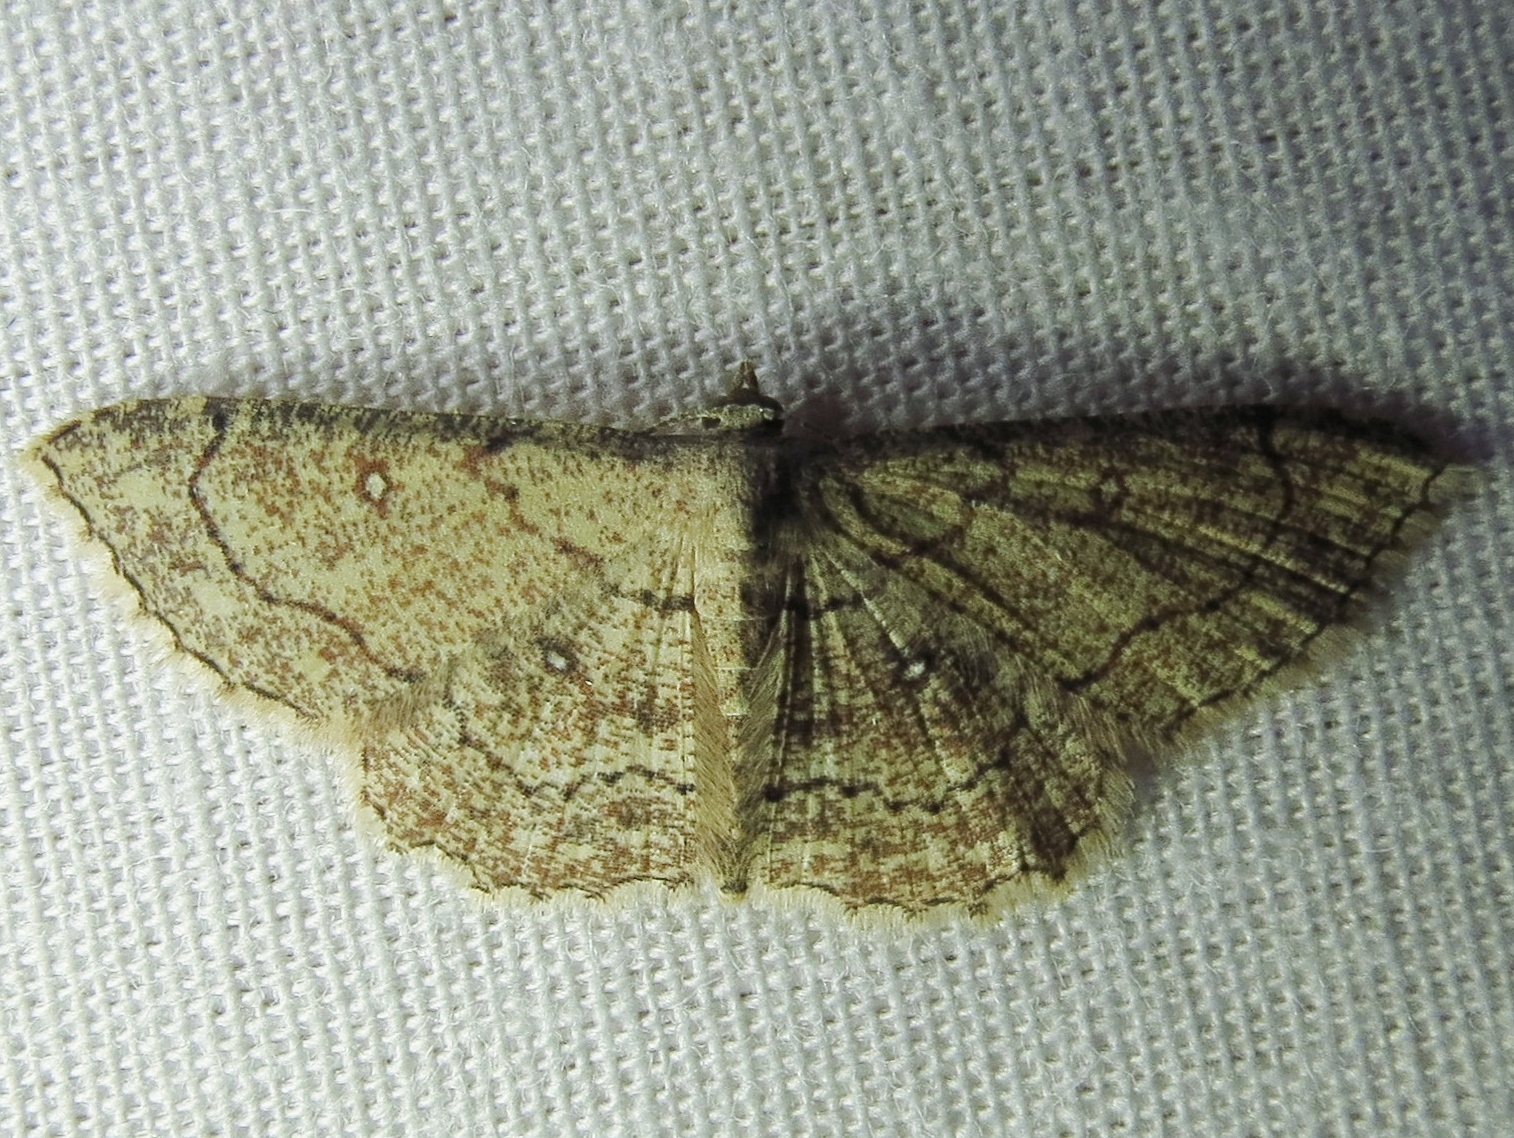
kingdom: Animalia
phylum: Arthropoda
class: Insecta
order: Lepidoptera
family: Geometridae
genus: Cyclophora
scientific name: Cyclophora nanaria
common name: Cankerworm
